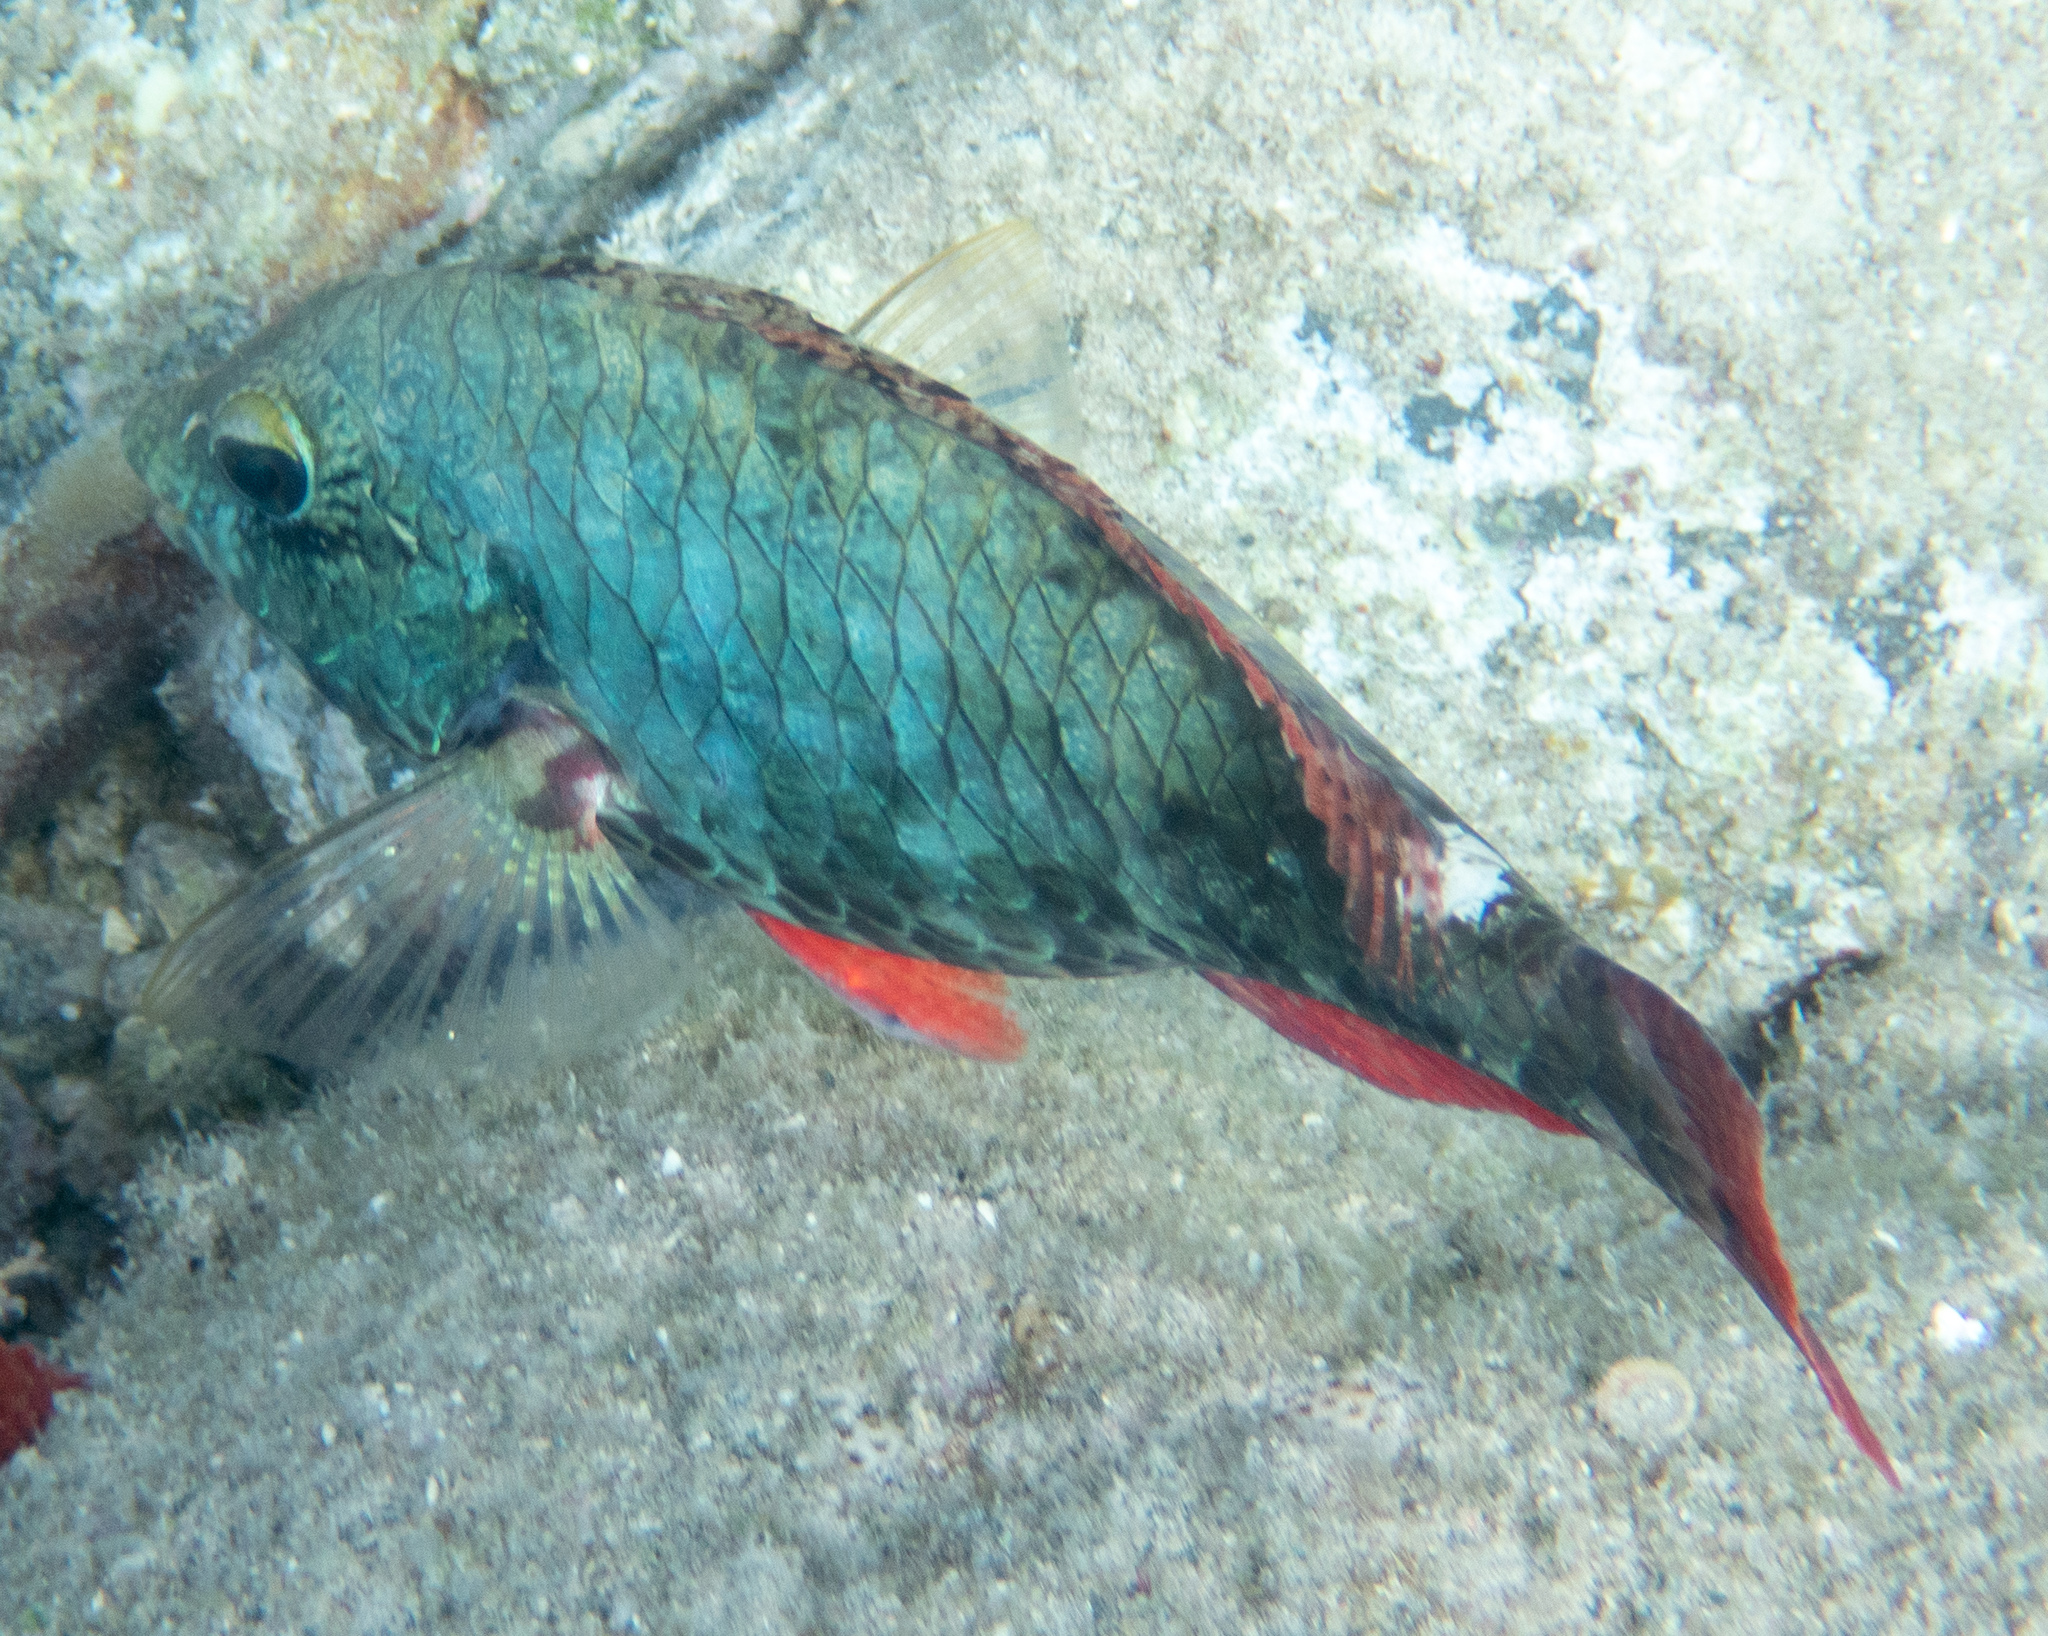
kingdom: Animalia
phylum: Chordata
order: Perciformes
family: Scaridae
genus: Sparisoma
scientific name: Sparisoma aurofrenatum
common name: Redband parrotfish
